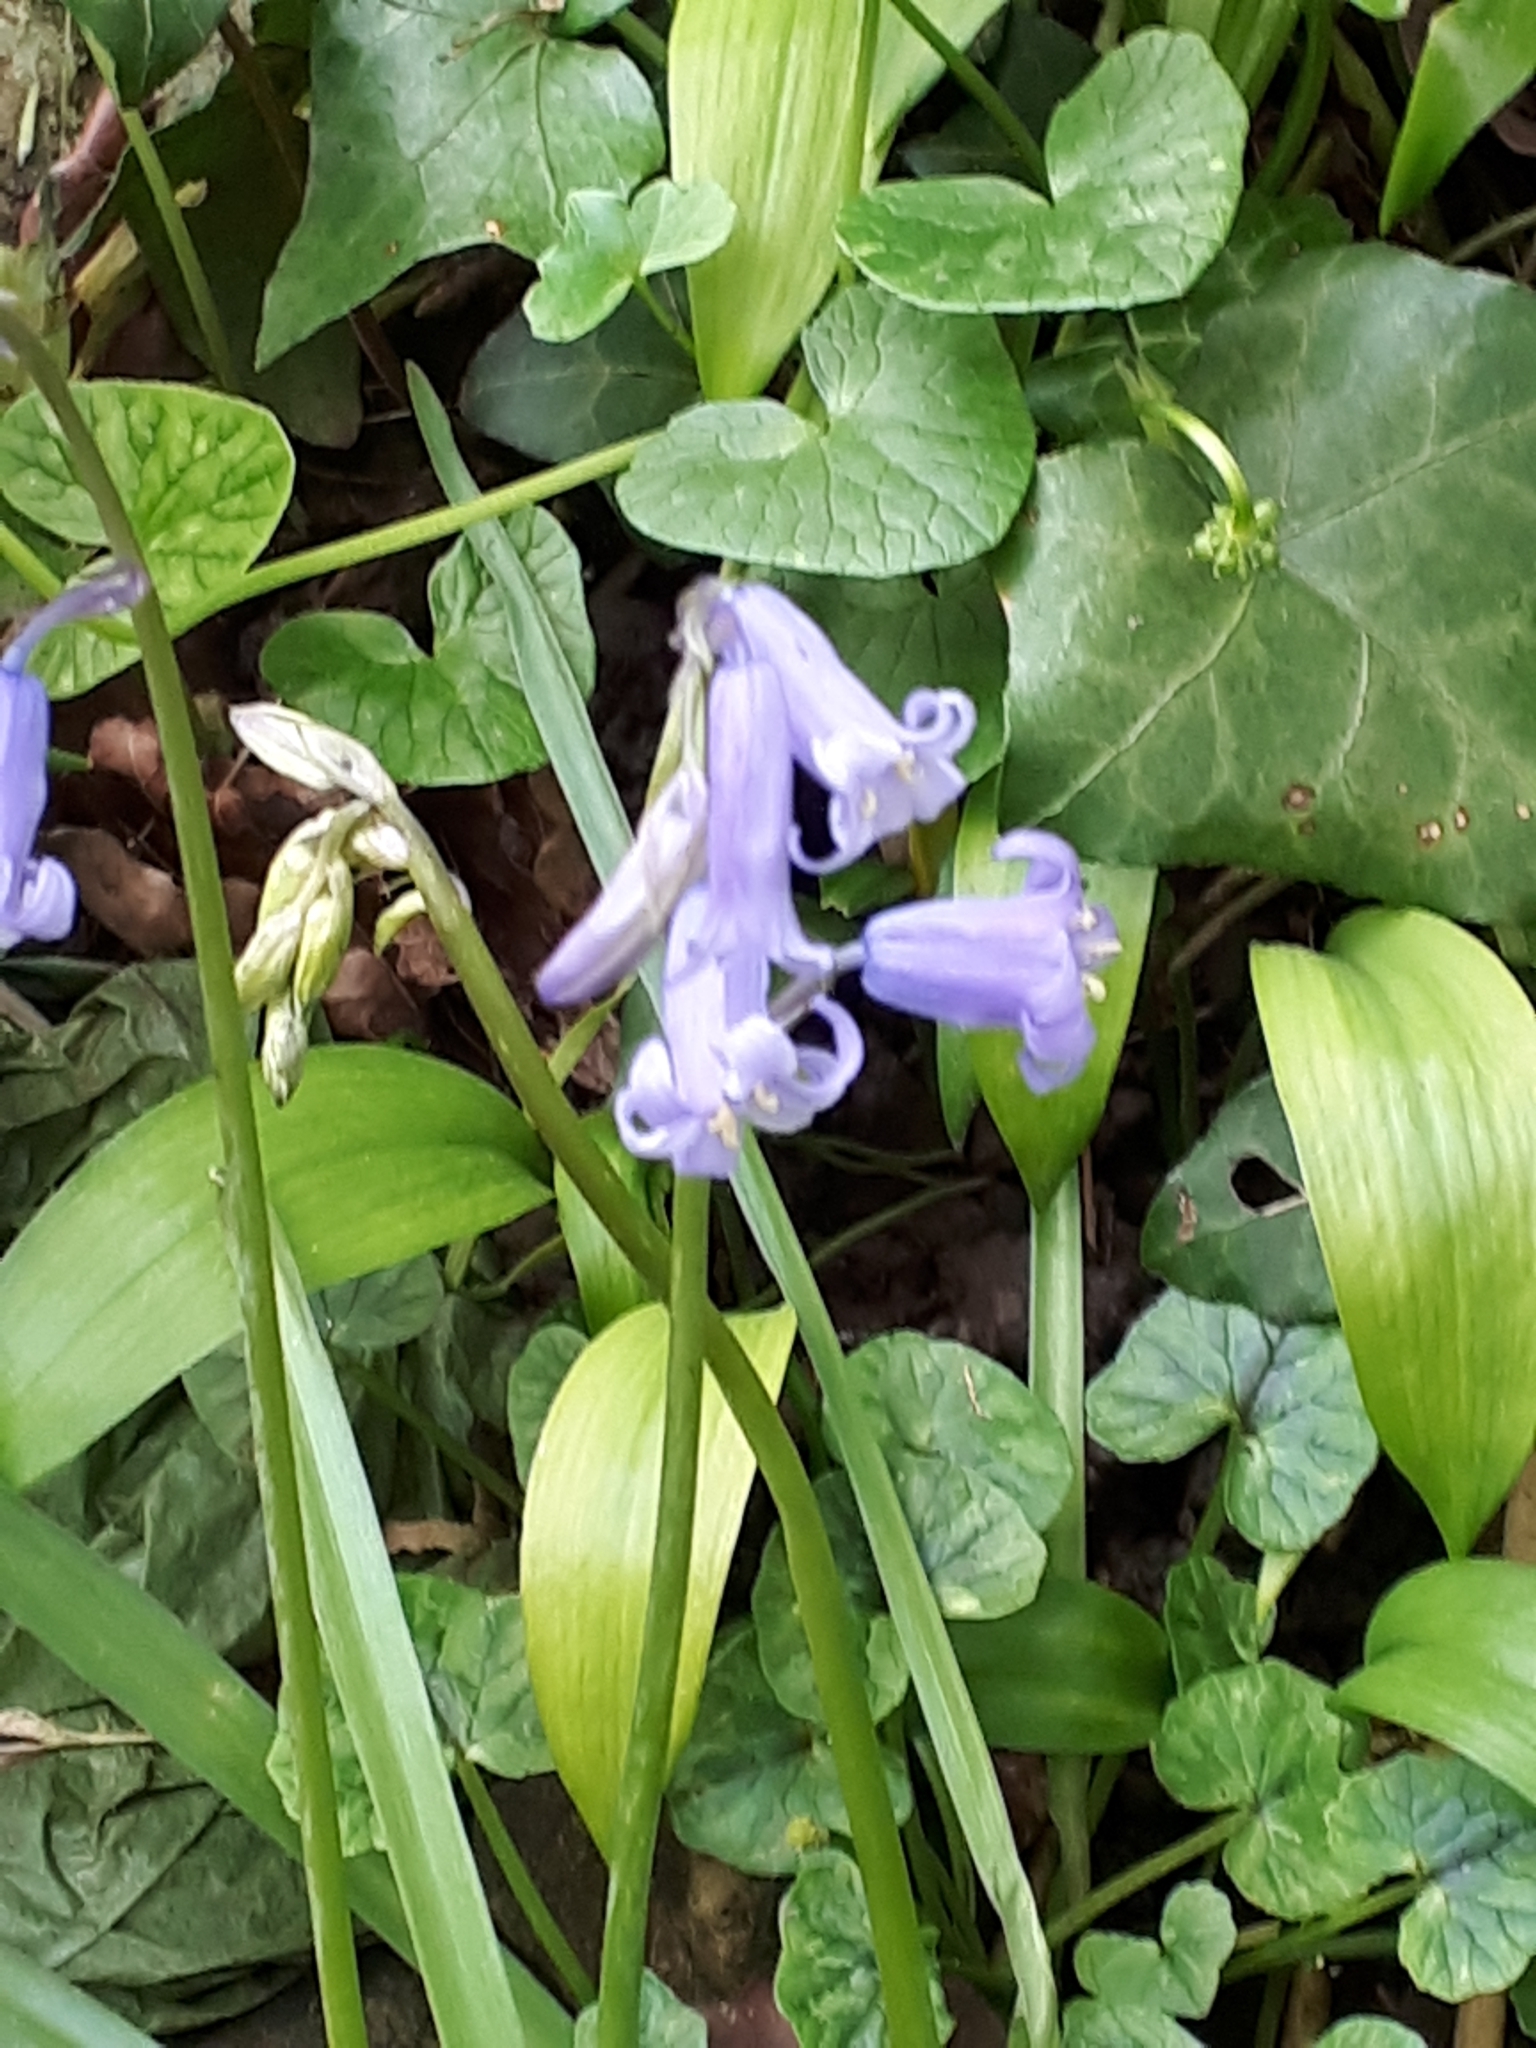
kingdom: Plantae
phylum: Tracheophyta
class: Liliopsida
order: Asparagales
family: Asparagaceae
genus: Hyacinthoides
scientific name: Hyacinthoides non-scripta
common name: Bluebell
